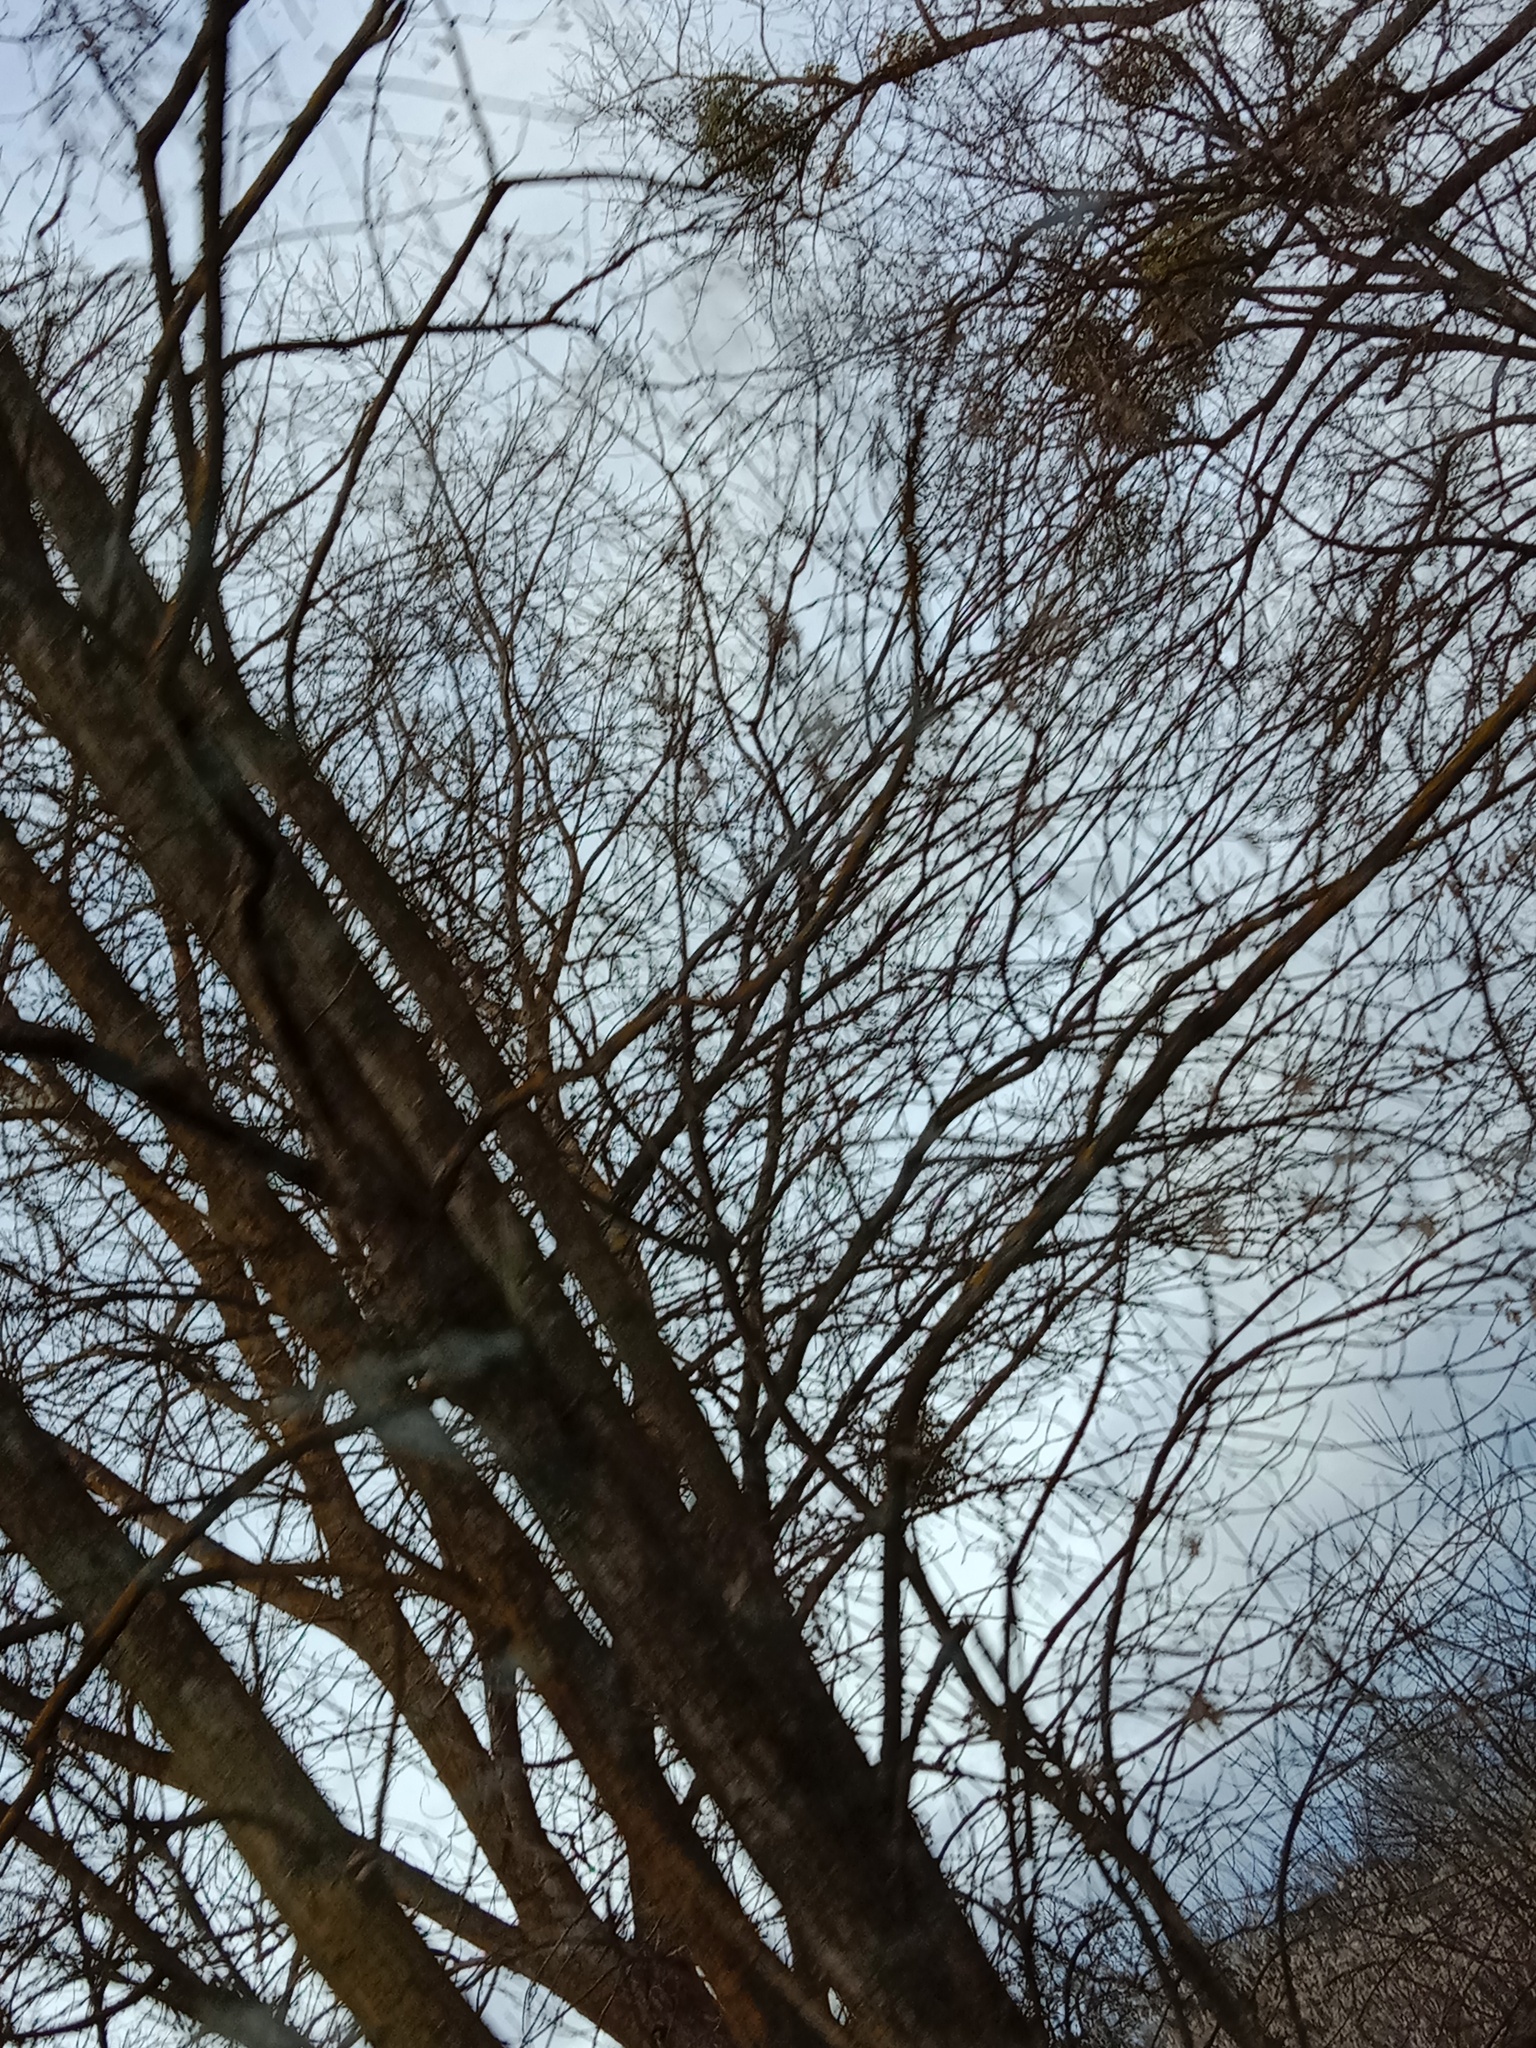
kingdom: Plantae
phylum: Tracheophyta
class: Magnoliopsida
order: Santalales
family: Viscaceae
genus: Viscum
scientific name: Viscum album
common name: Mistletoe
